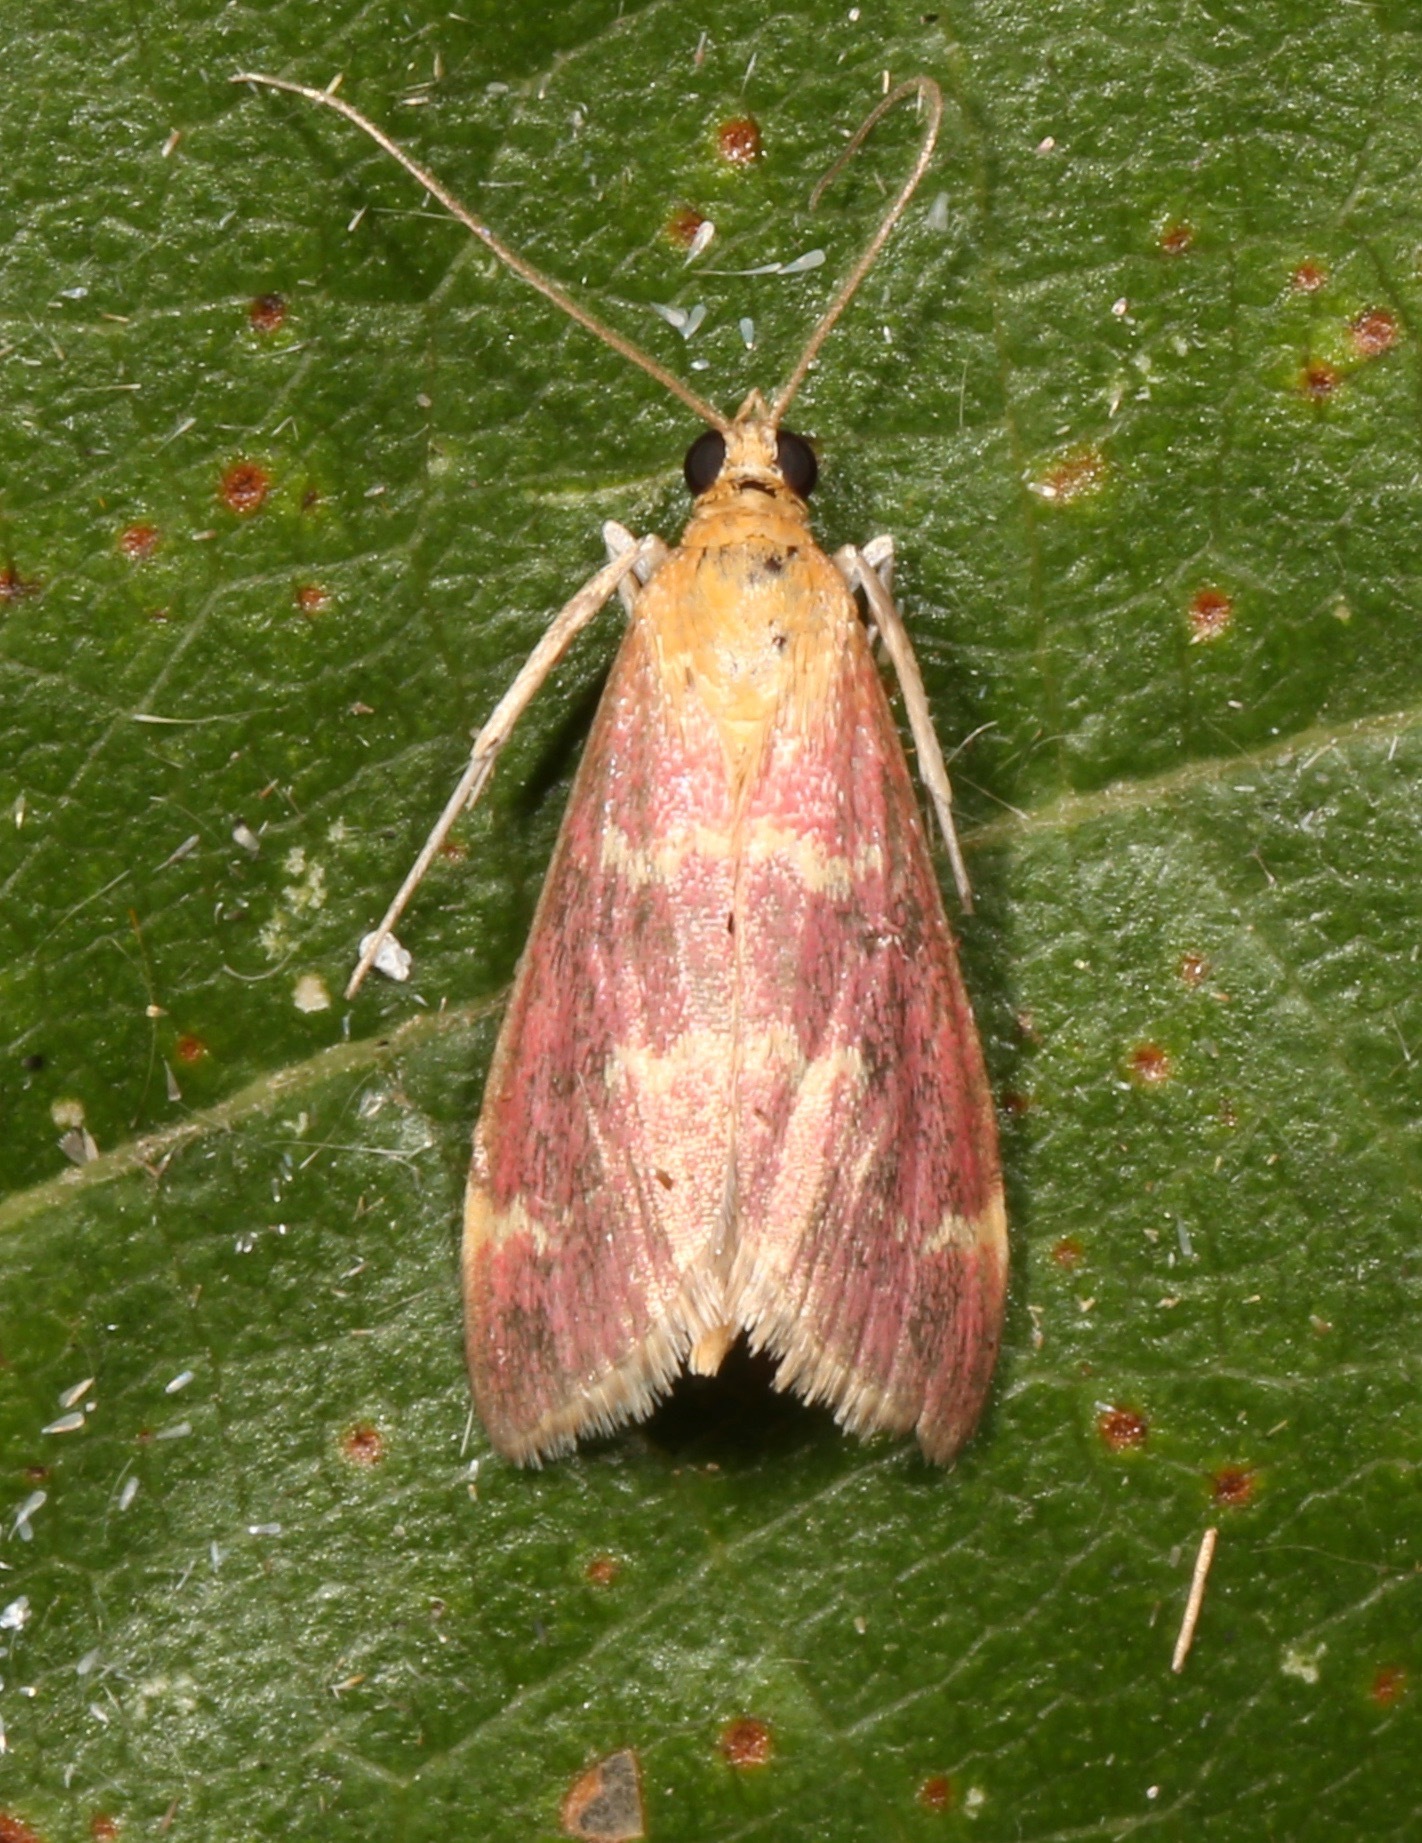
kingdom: Animalia
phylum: Arthropoda
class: Insecta
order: Lepidoptera
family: Crambidae
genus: Pyrausta
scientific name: Pyrausta signatalis
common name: Raspberry pyrausta moth
